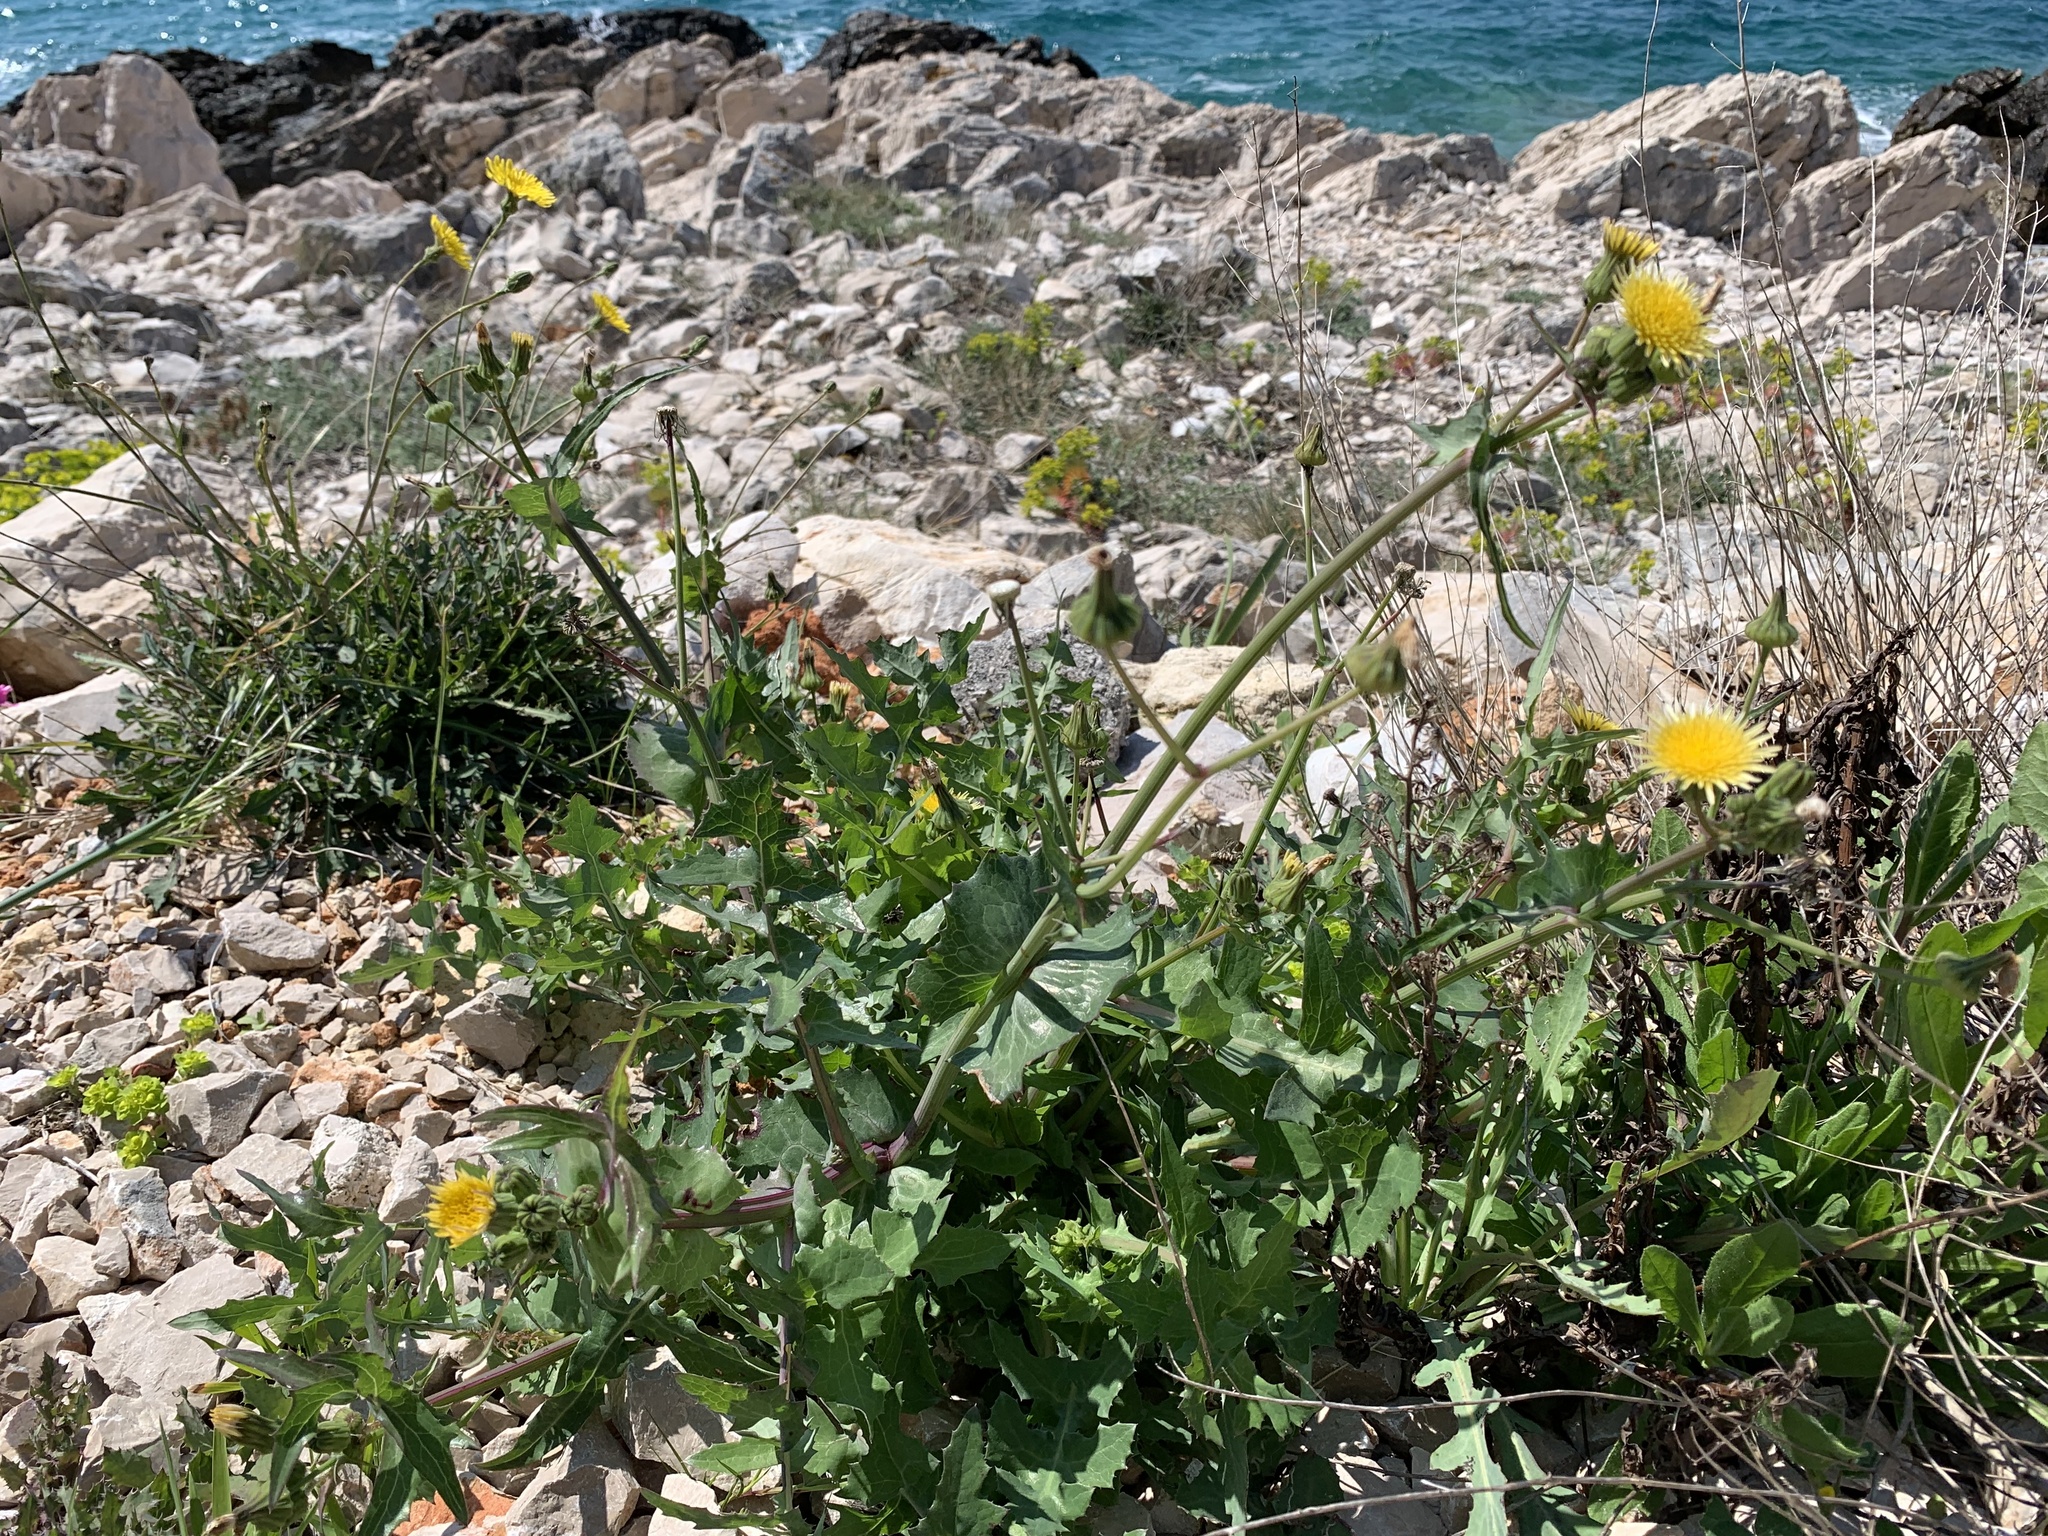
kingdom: Plantae
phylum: Tracheophyta
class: Magnoliopsida
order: Asterales
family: Asteraceae
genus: Sonchus
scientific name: Sonchus oleraceus
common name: Common sowthistle
